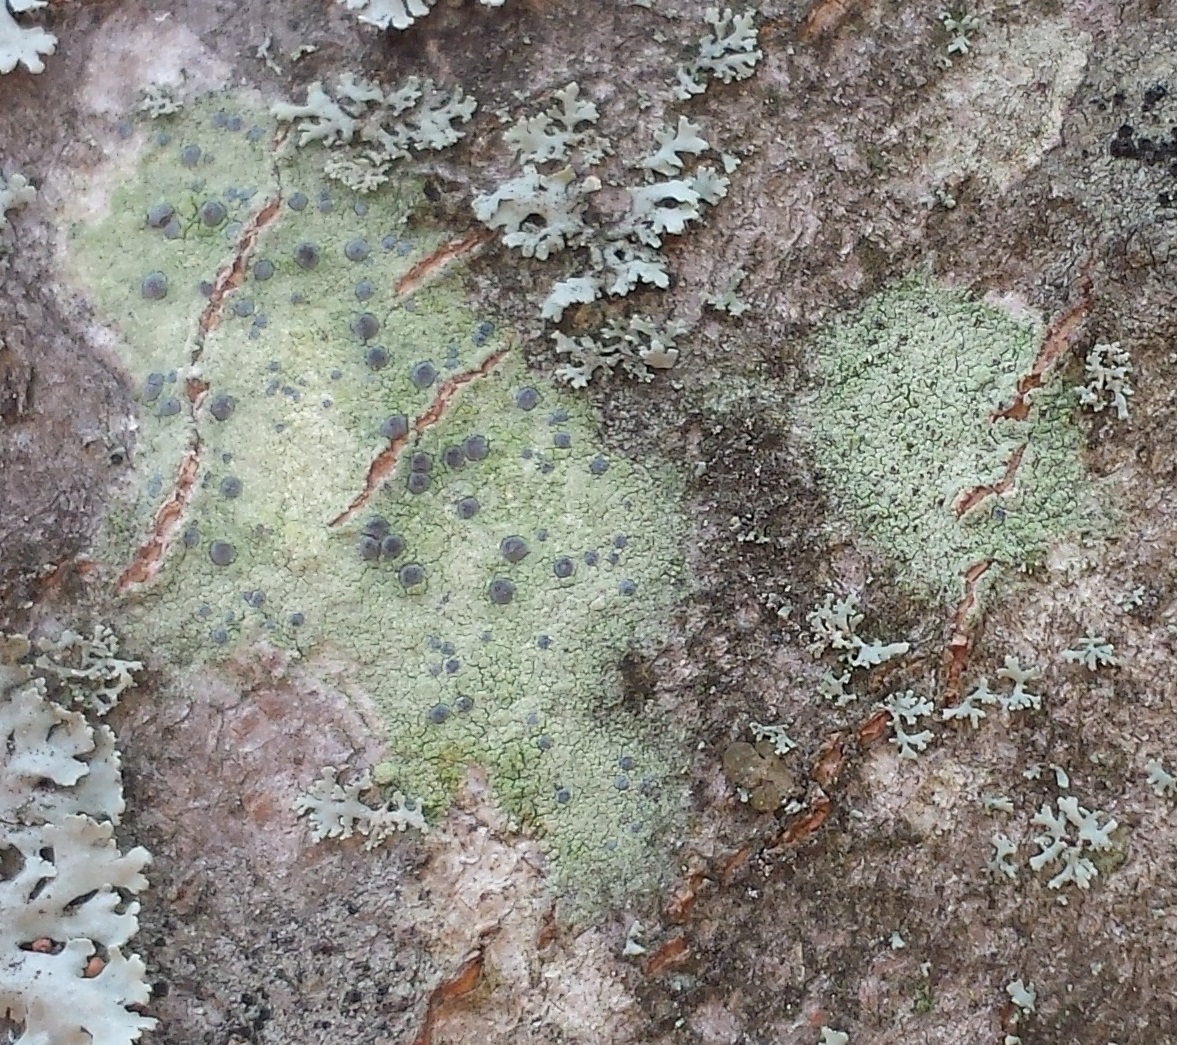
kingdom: Fungi
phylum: Ascomycota
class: Arthoniomycetes
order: Arthoniales
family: Chrysotrichaceae
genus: Chrysothrix
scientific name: Chrysothrix caesia
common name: Frosted comma lichen
